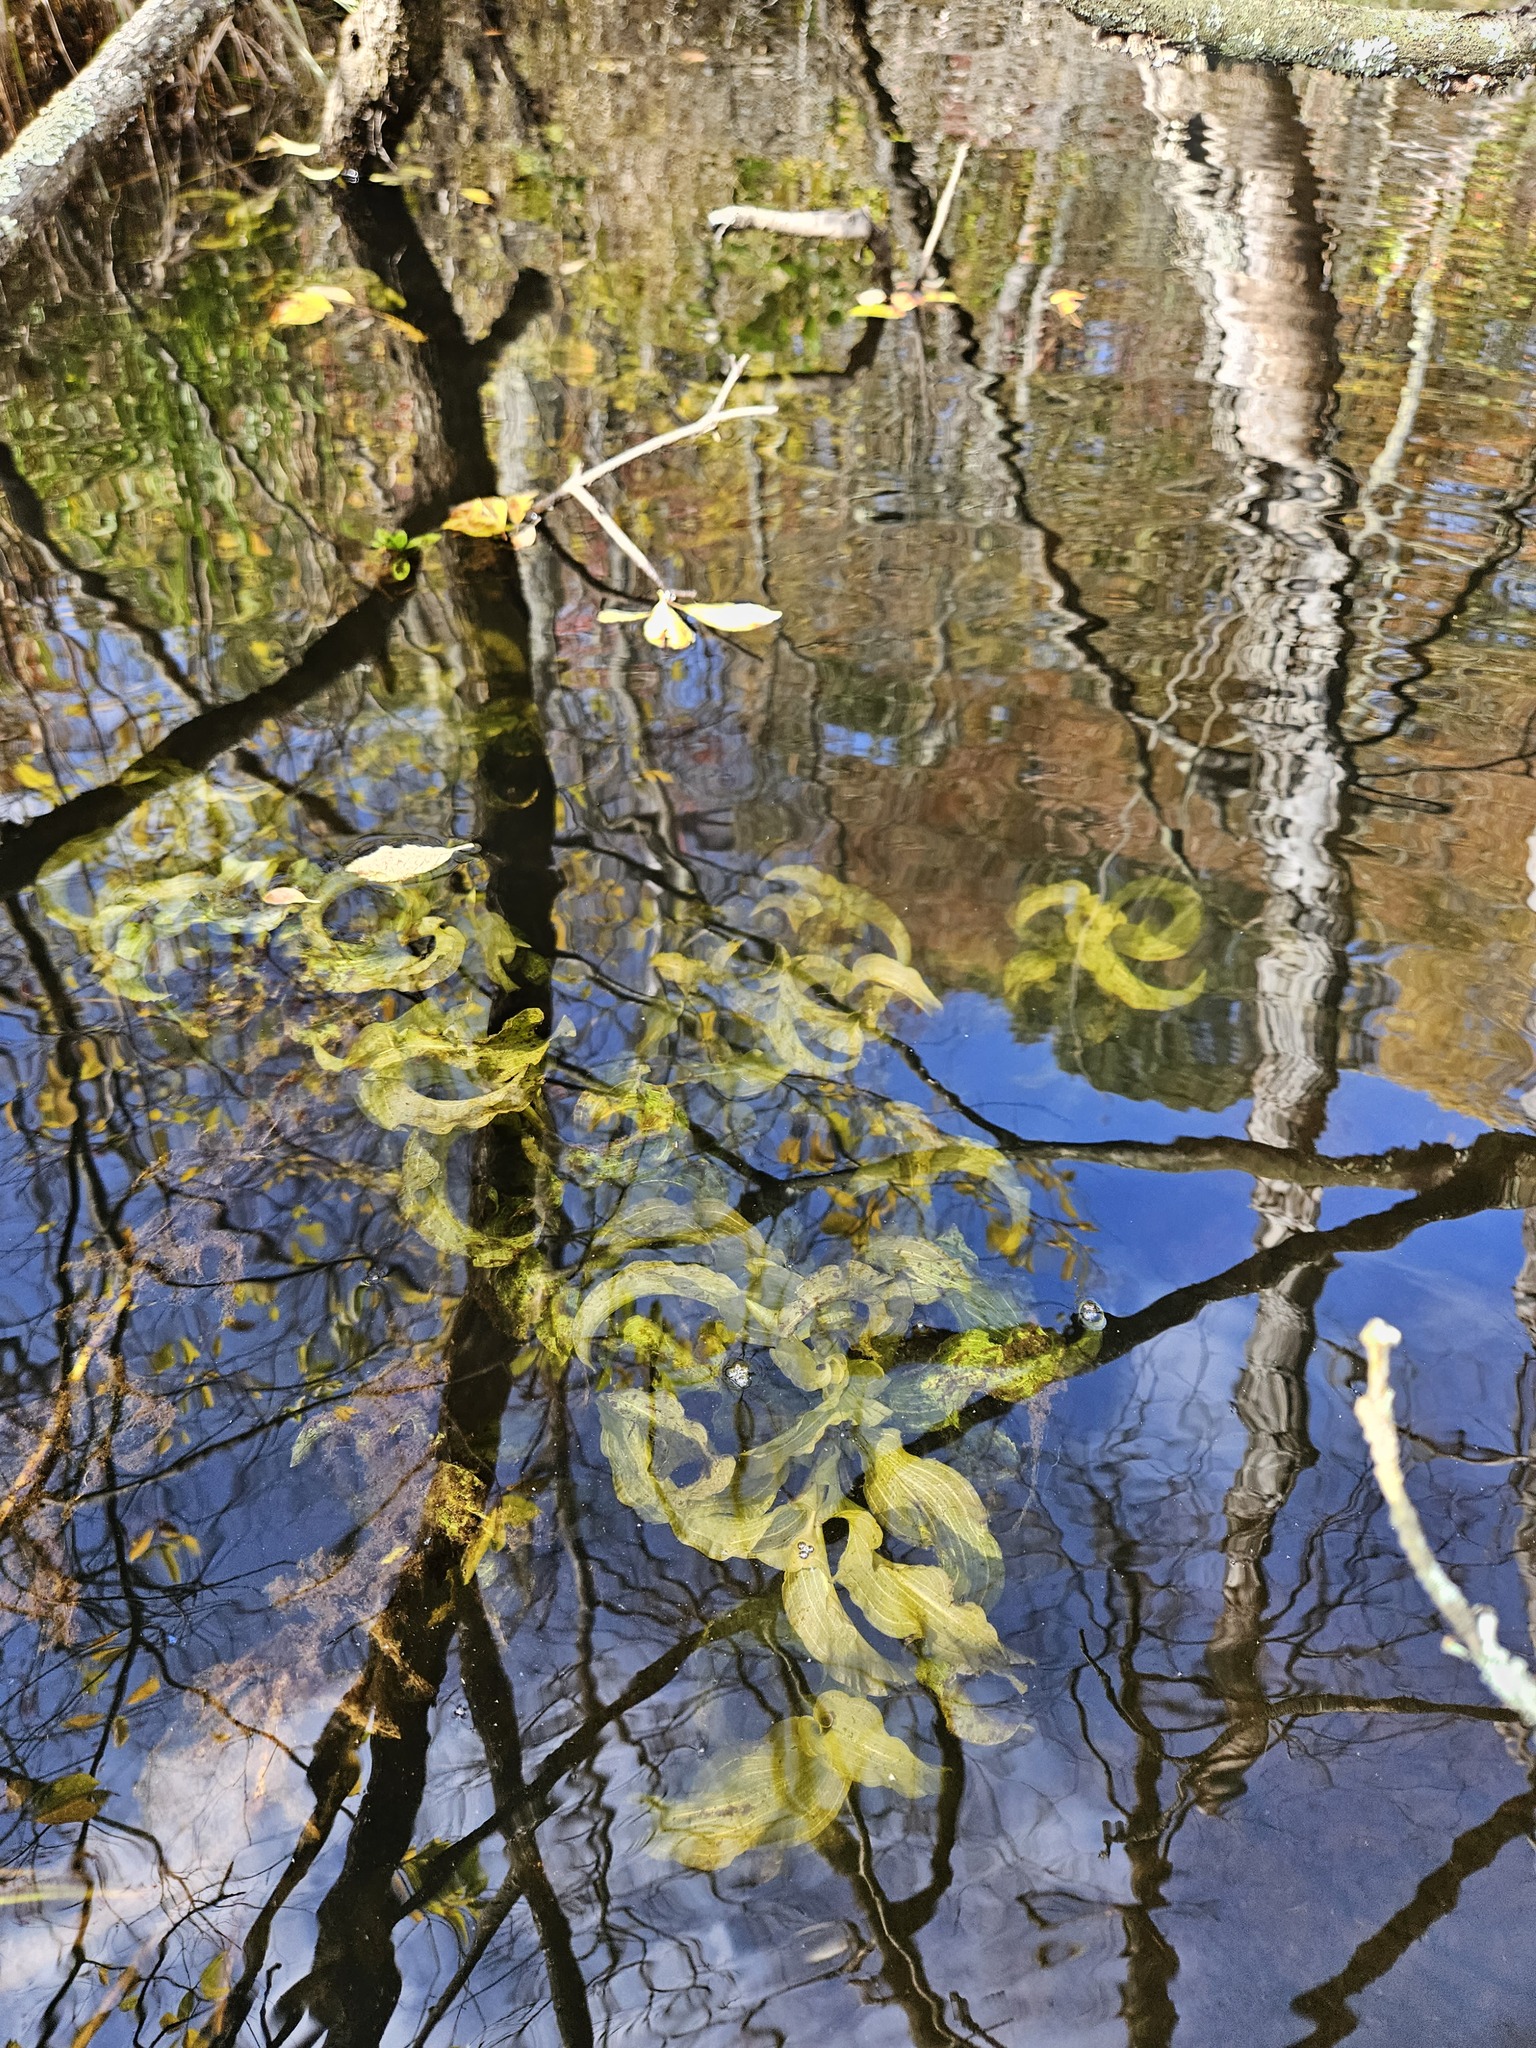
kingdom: Plantae
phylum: Tracheophyta
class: Liliopsida
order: Alismatales
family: Potamogetonaceae
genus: Potamogeton
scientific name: Potamogeton amplifolius
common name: Broad-leaved pondweed
